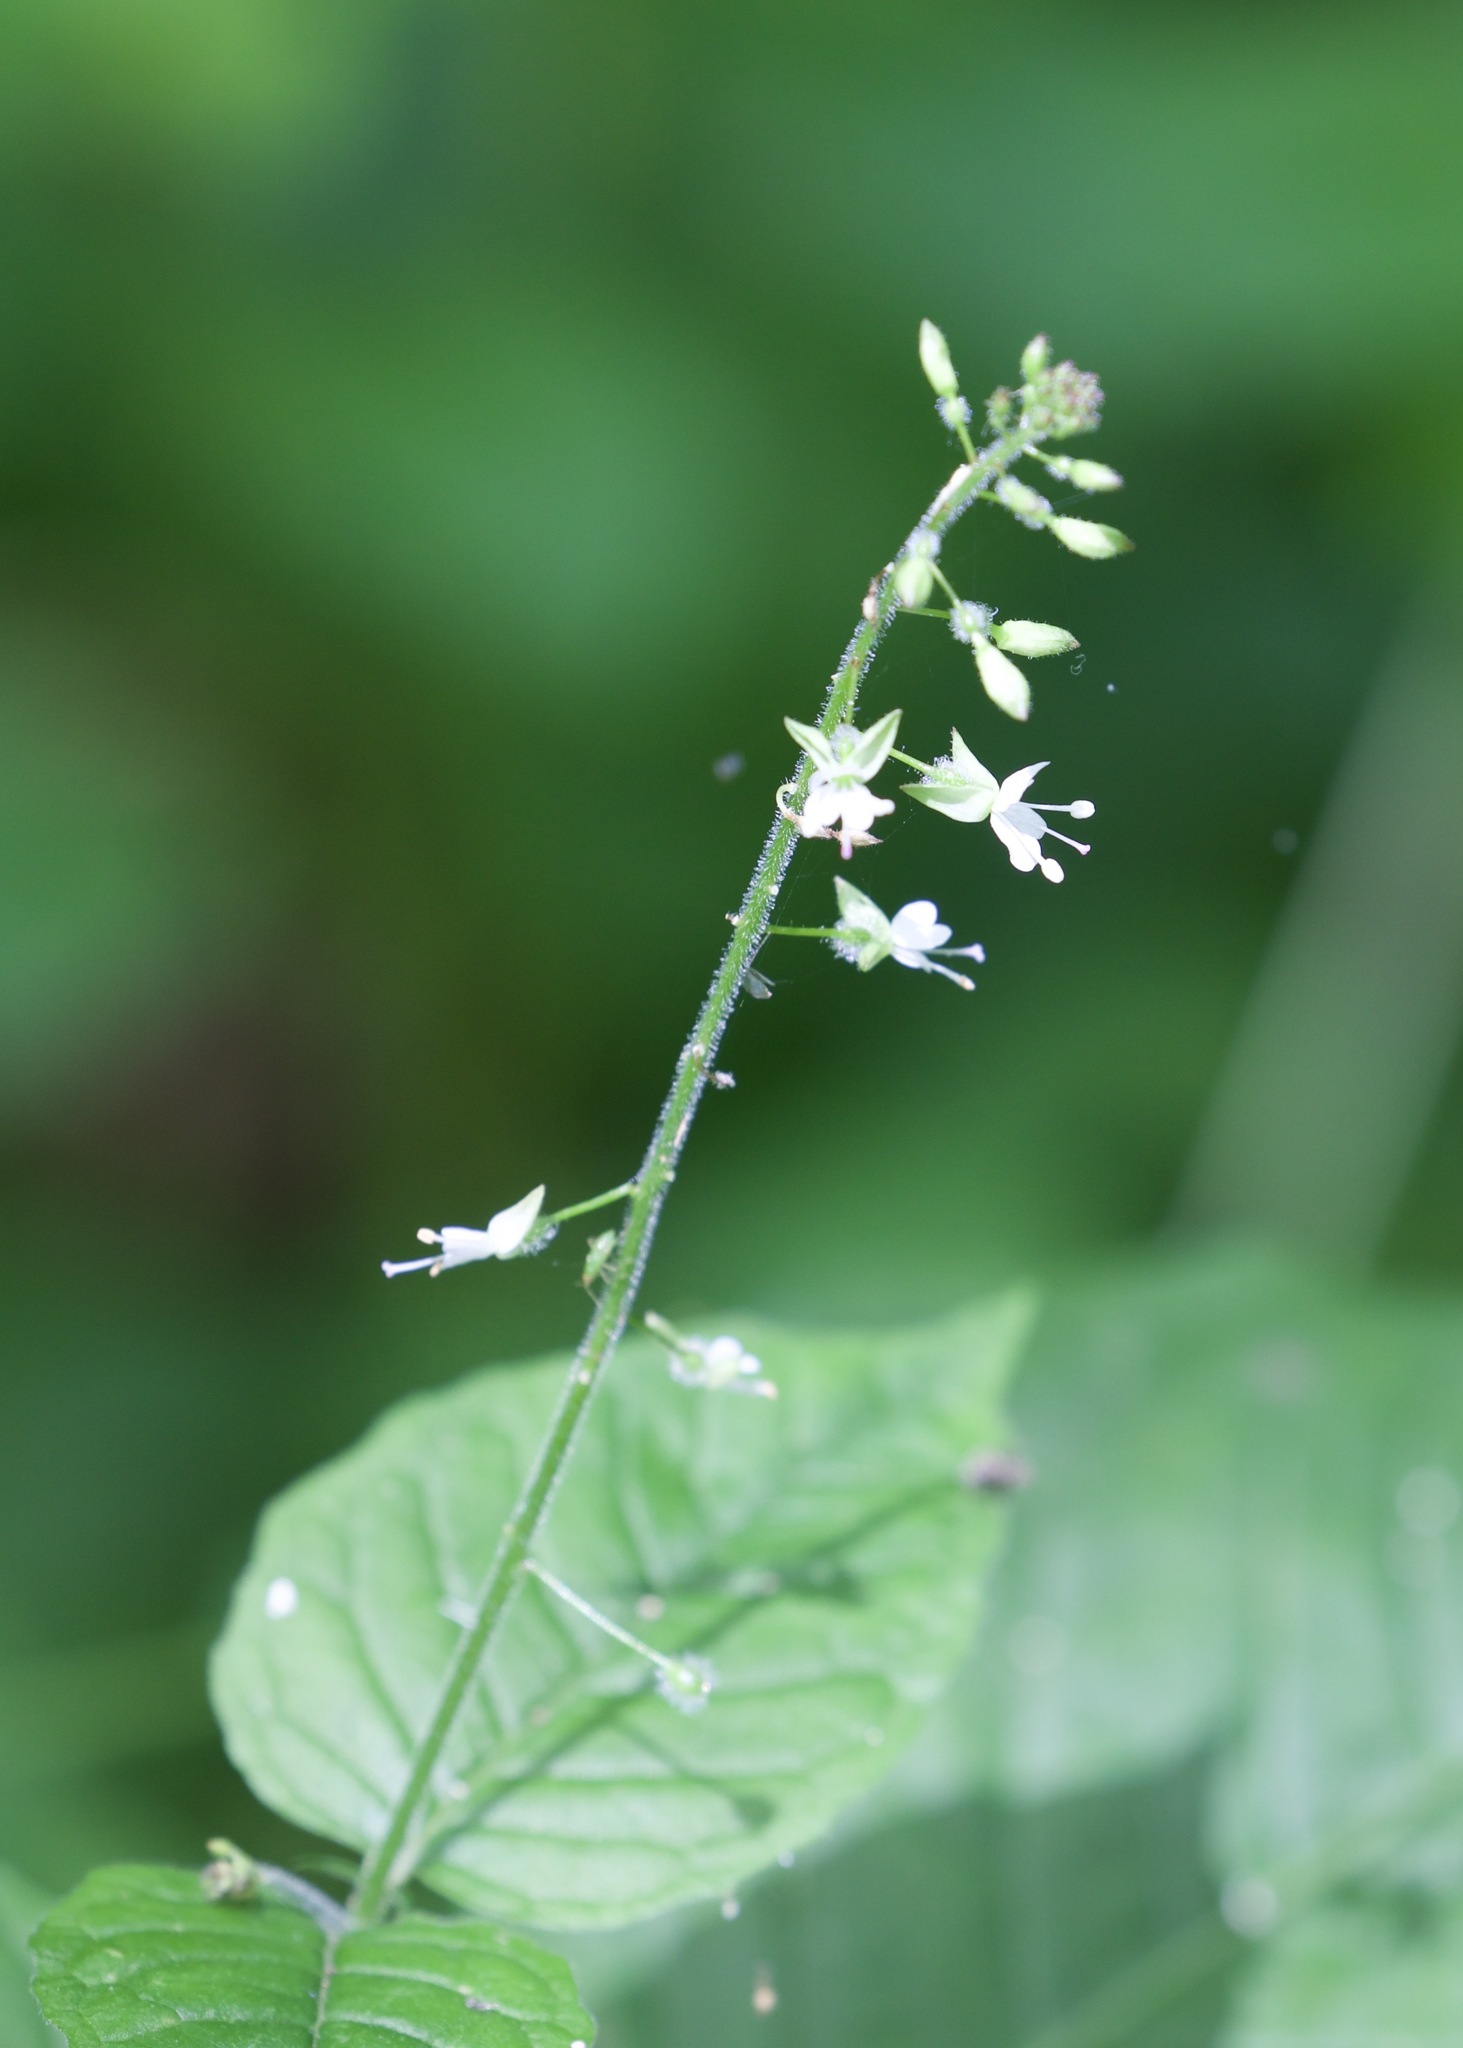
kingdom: Plantae
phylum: Tracheophyta
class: Magnoliopsida
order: Myrtales
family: Onagraceae
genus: Circaea
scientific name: Circaea lutetiana
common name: Enchanter's-nightshade
